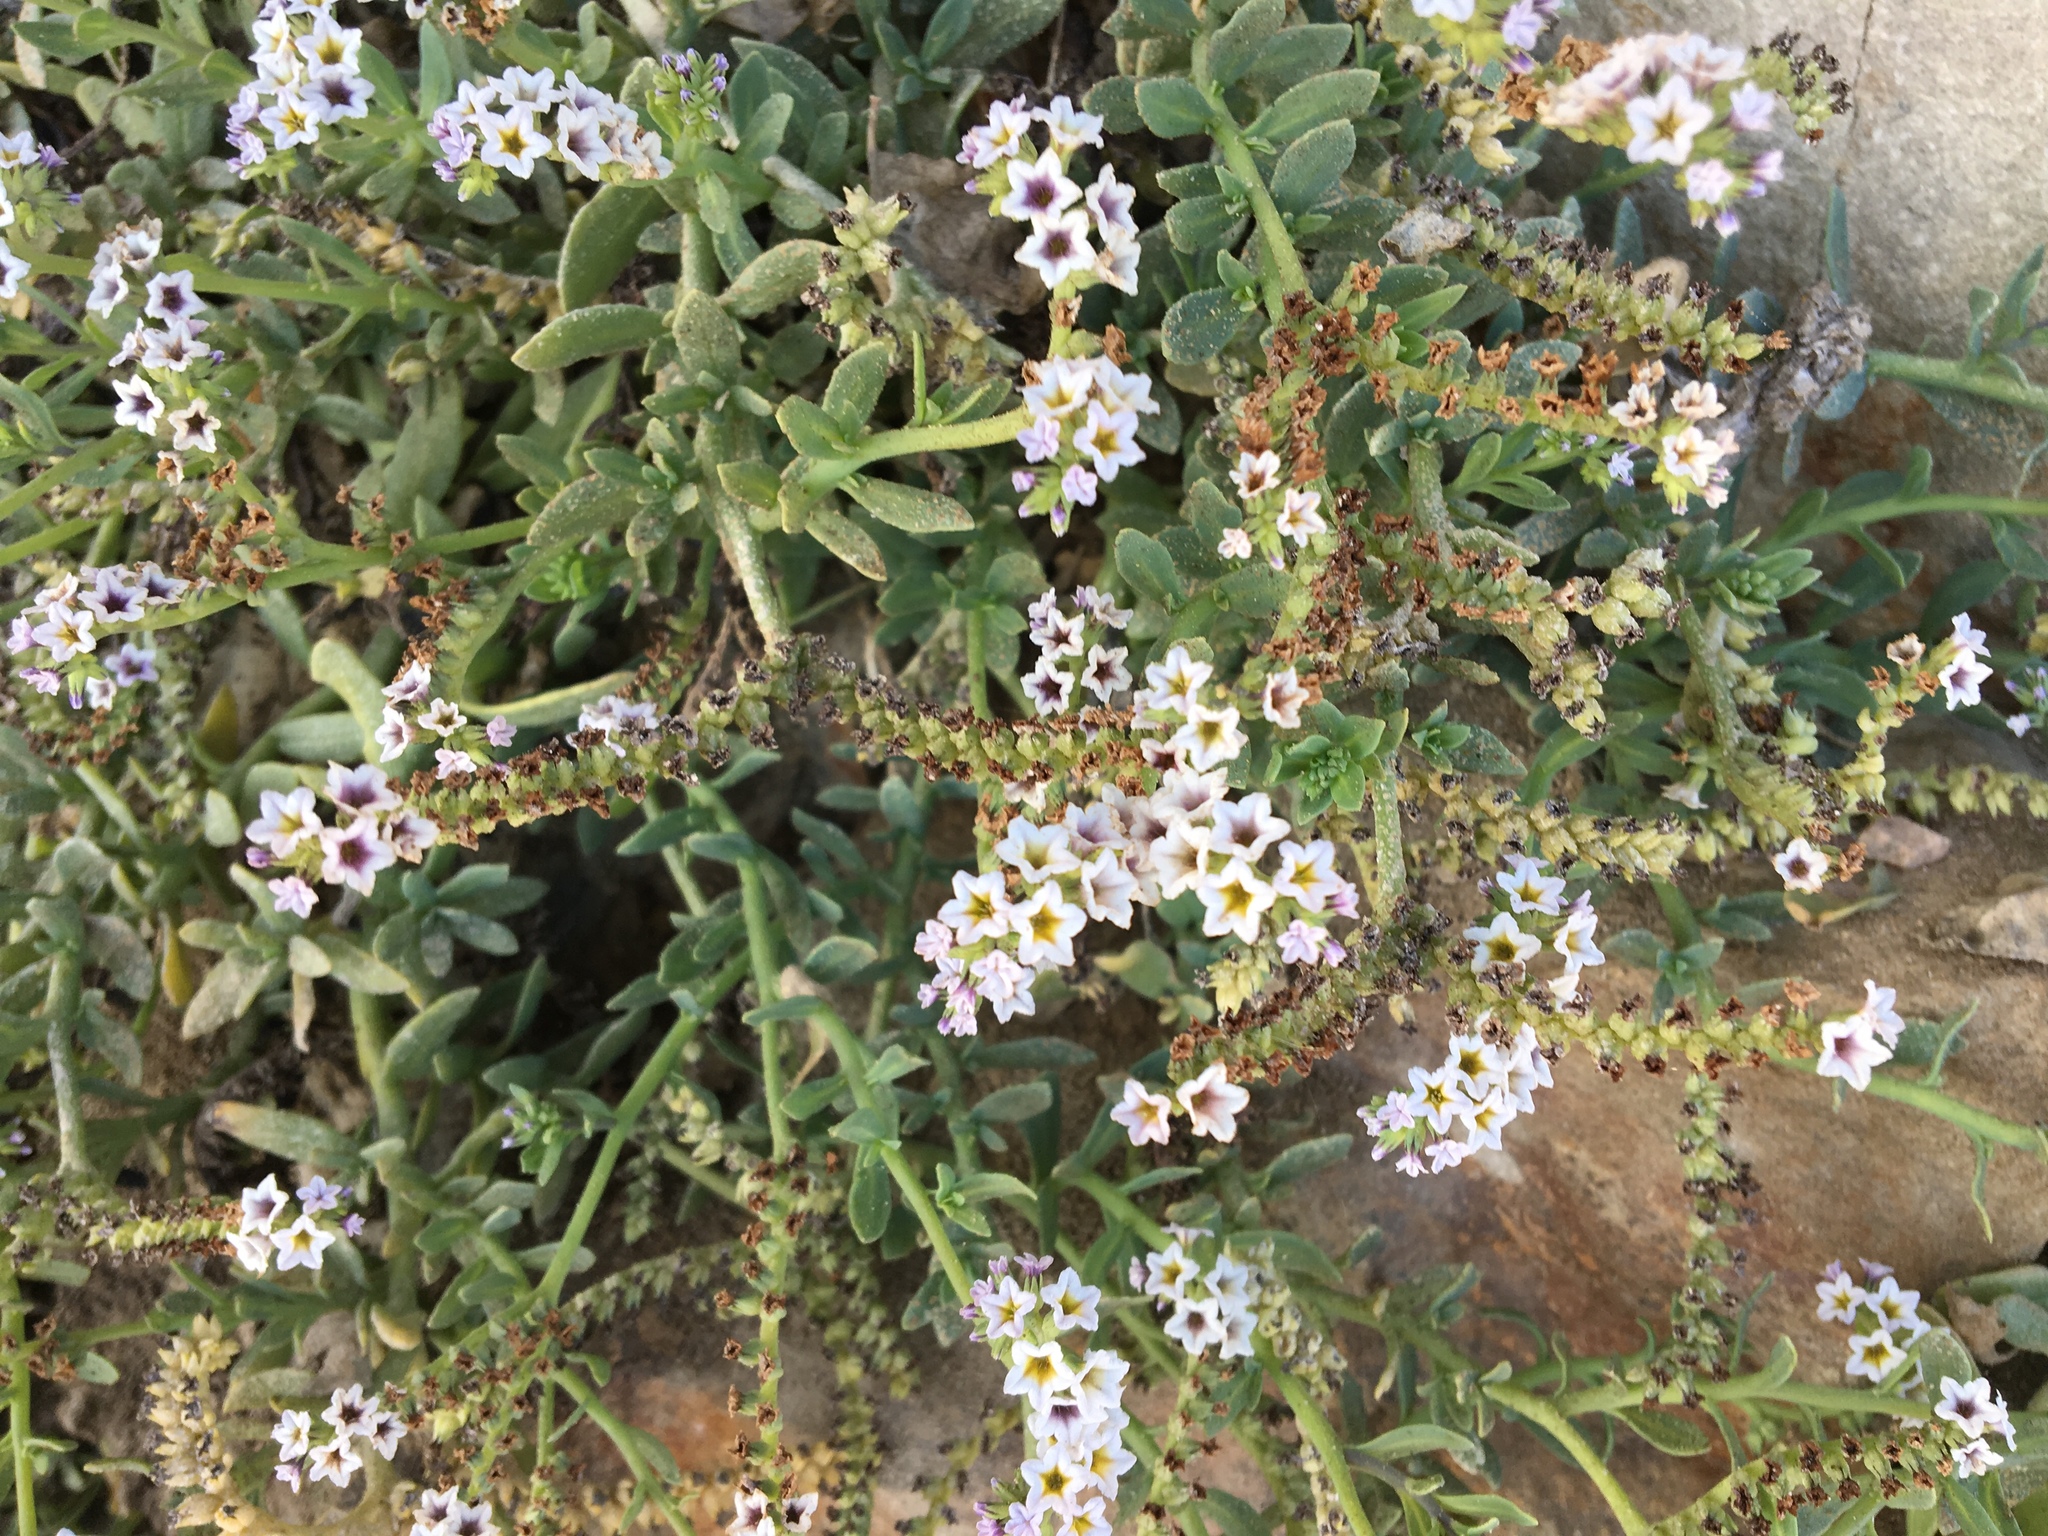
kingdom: Plantae
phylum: Tracheophyta
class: Magnoliopsida
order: Boraginales
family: Heliotropiaceae
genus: Heliotropium
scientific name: Heliotropium curassavicum
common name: Seaside heliotrope
